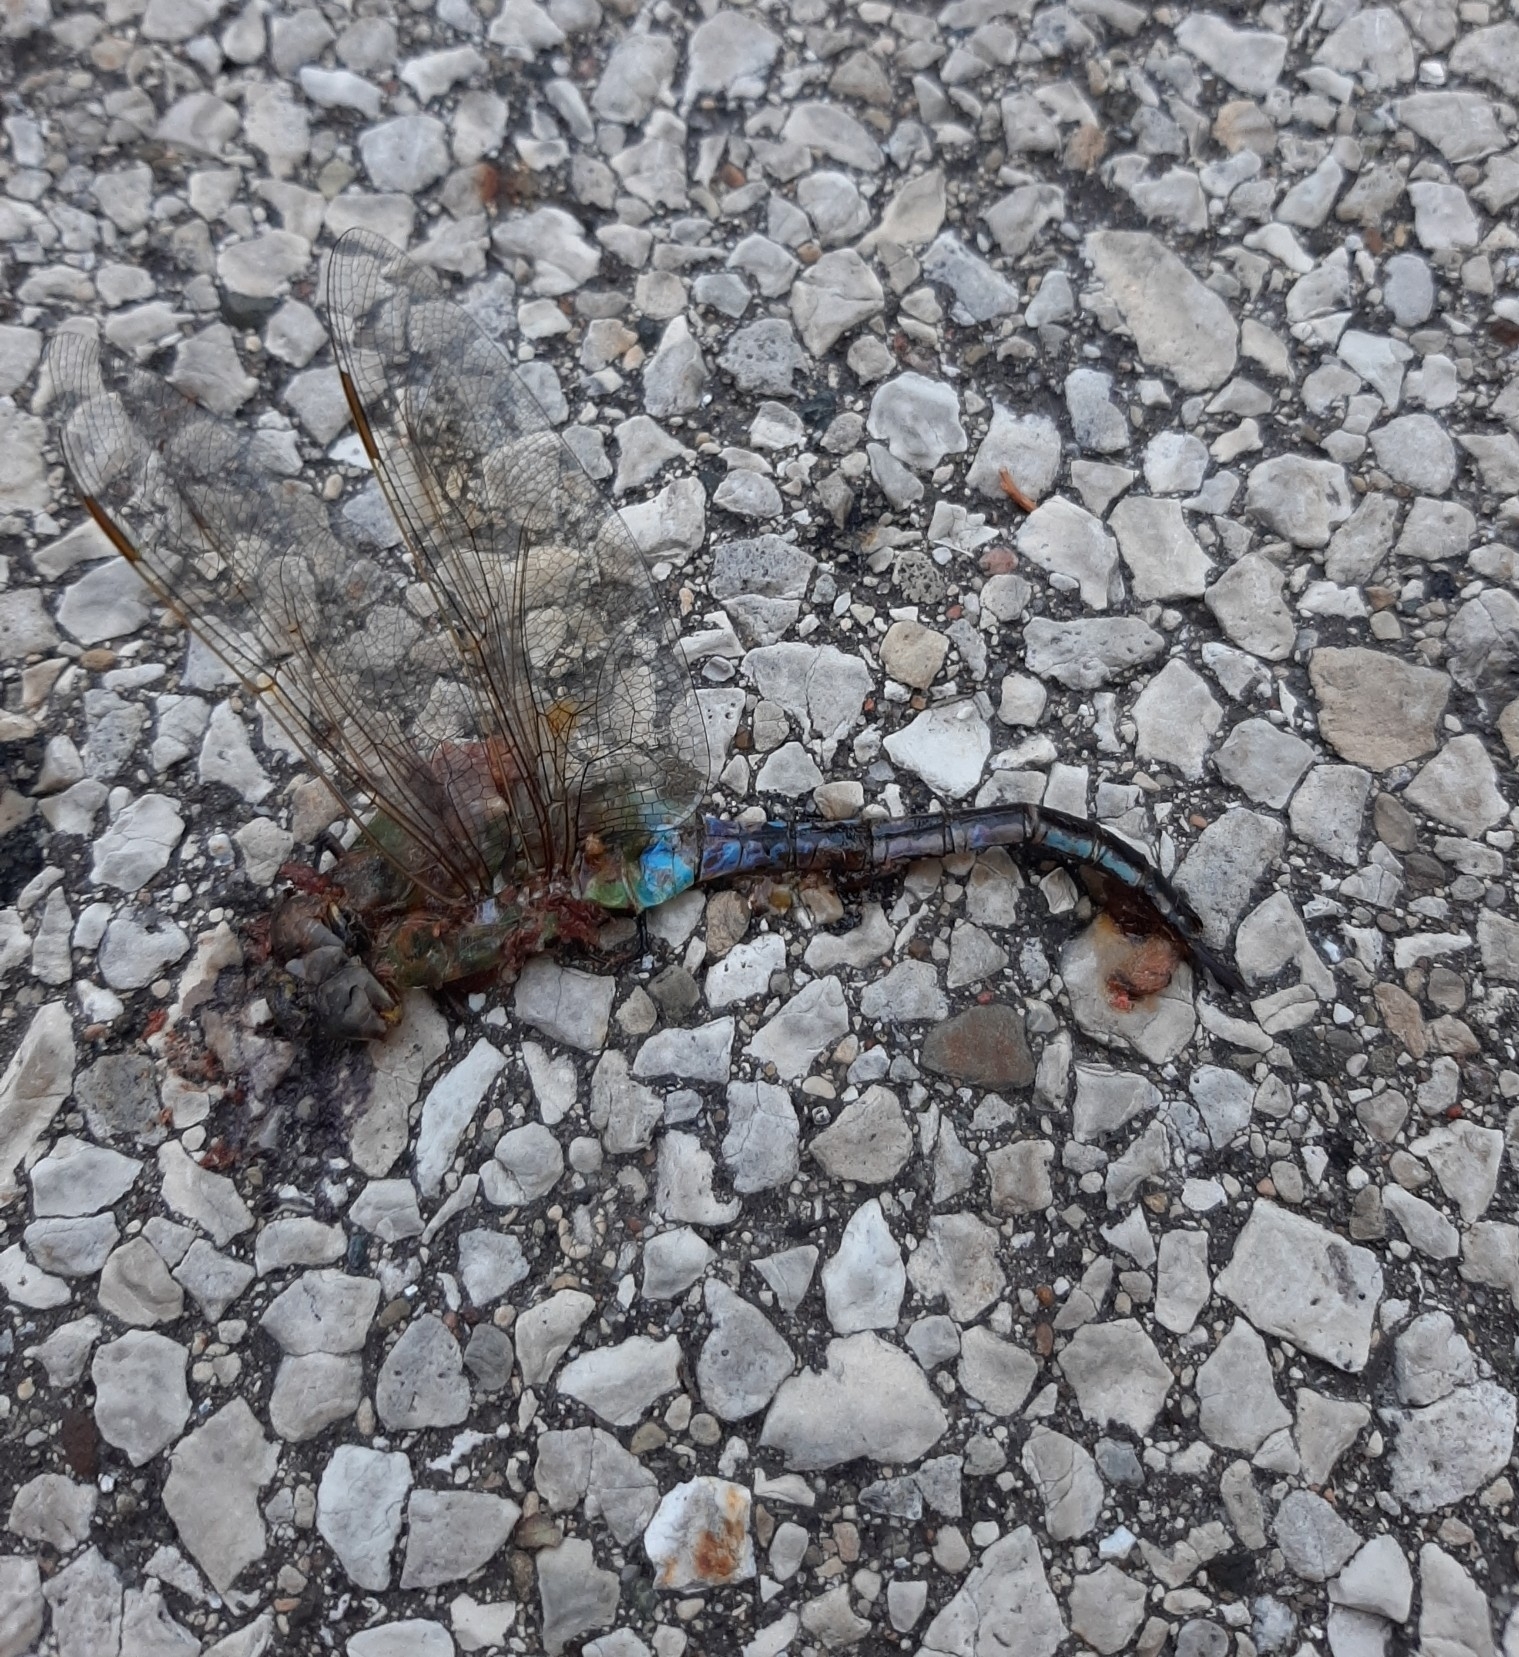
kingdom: Animalia
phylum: Arthropoda
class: Insecta
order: Odonata
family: Aeshnidae
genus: Anax
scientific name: Anax junius
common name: Common green darner
